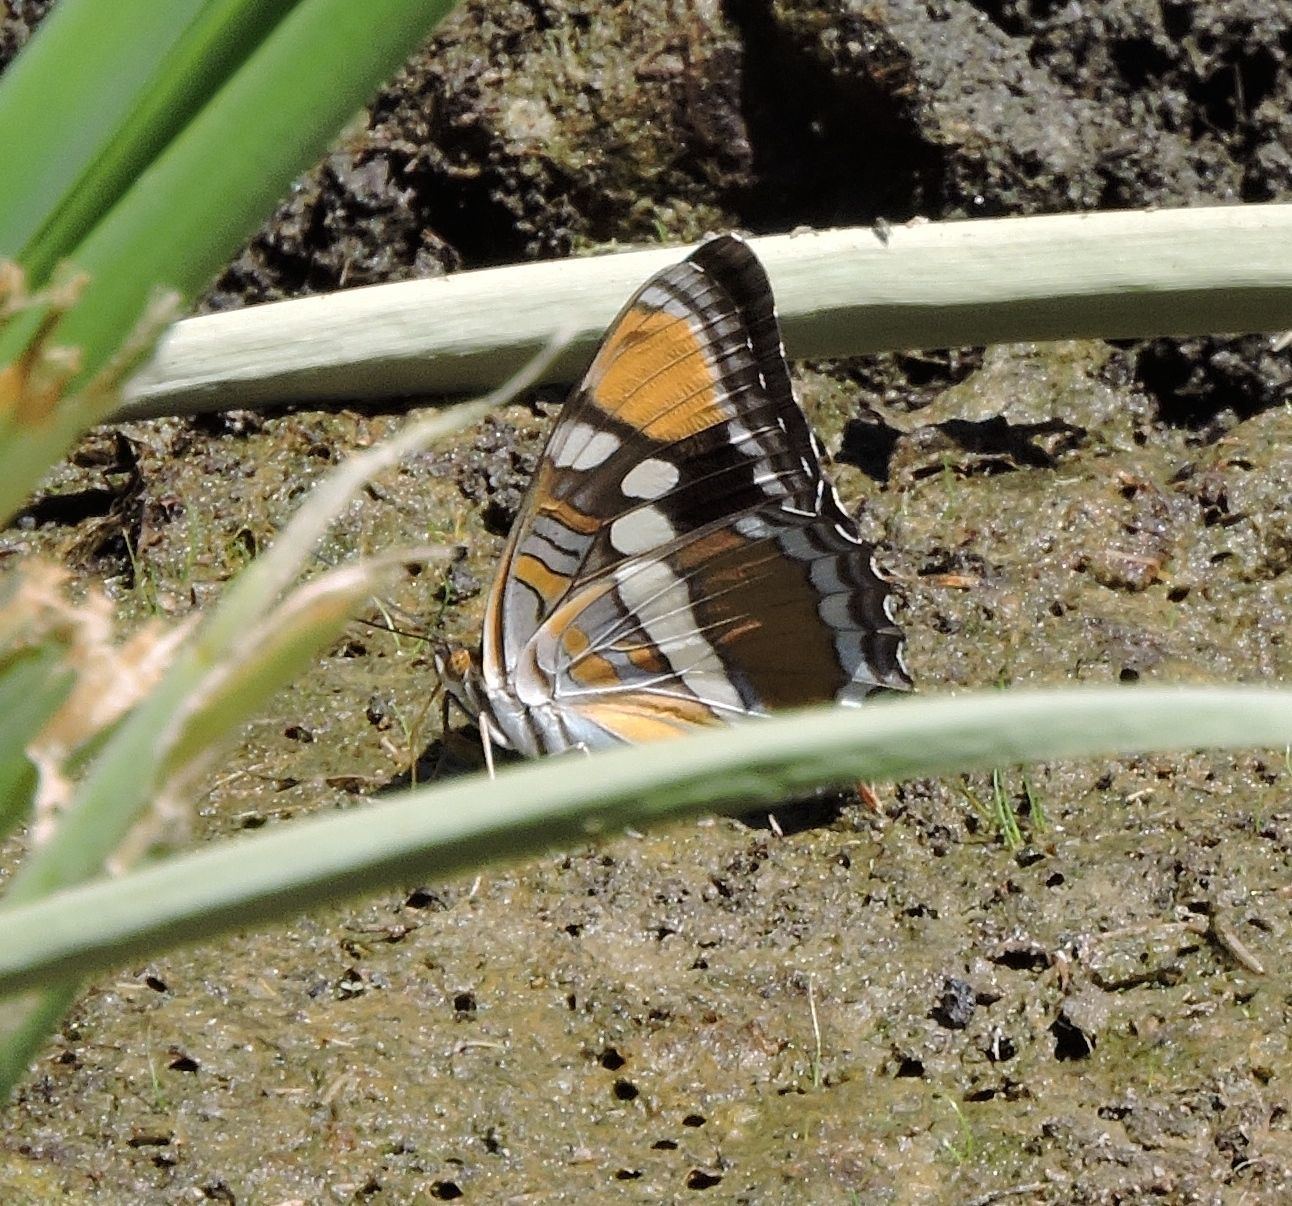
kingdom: Animalia
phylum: Arthropoda
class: Insecta
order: Lepidoptera
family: Nymphalidae
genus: Limenitis
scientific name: Limenitis bredowii
